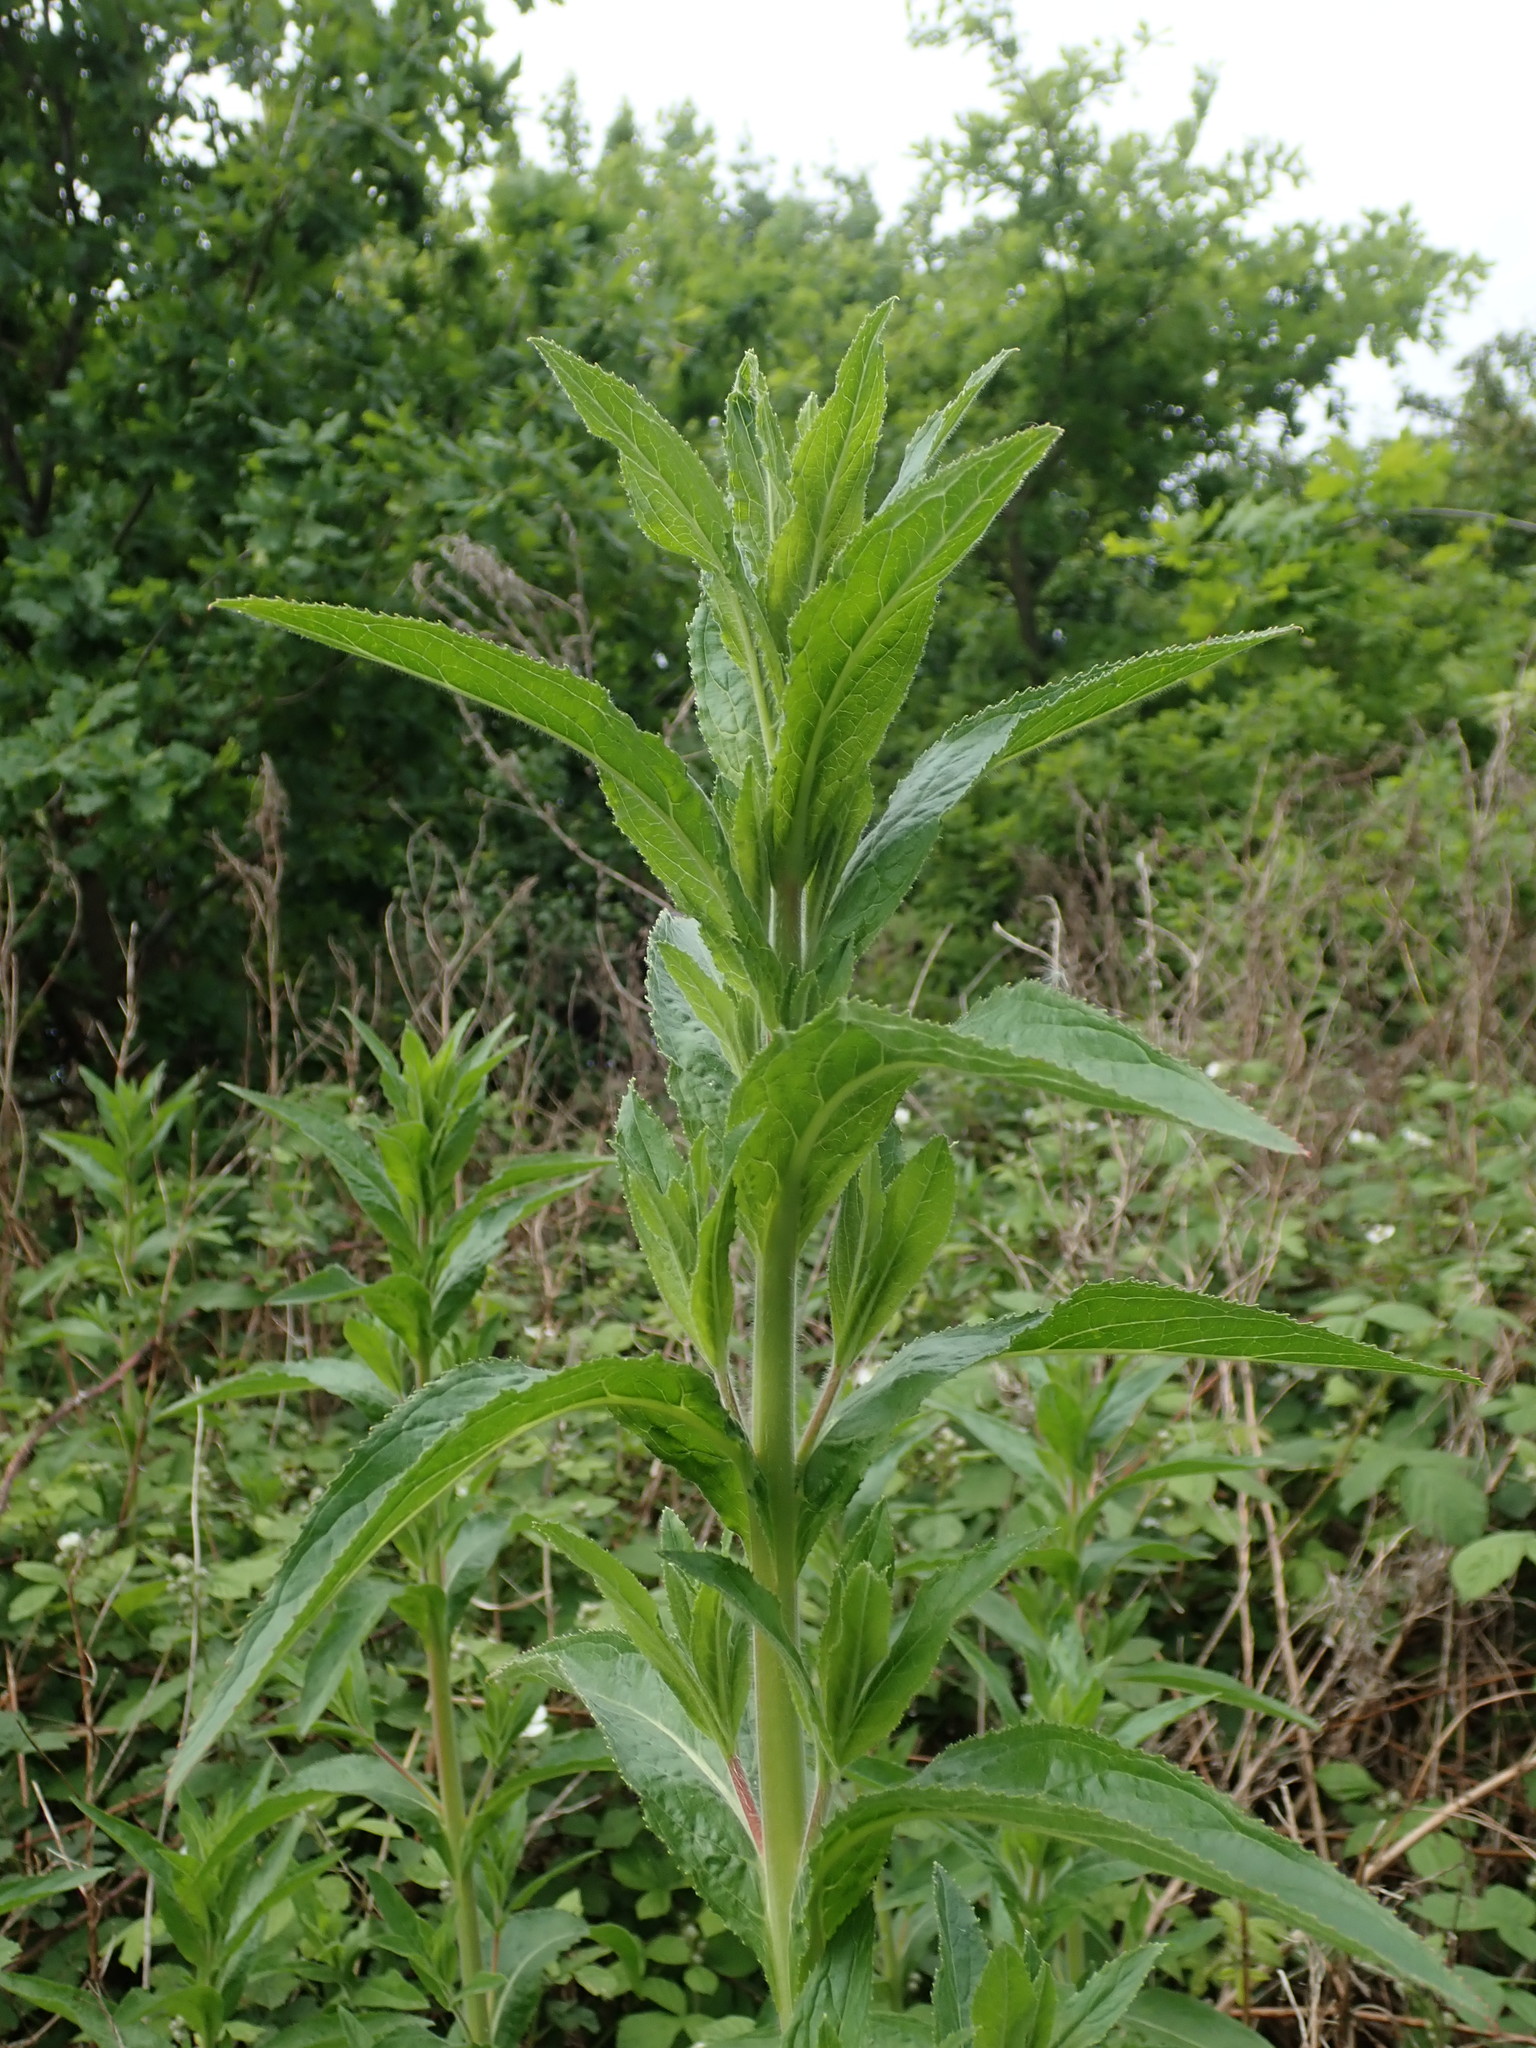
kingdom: Plantae
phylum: Tracheophyta
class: Magnoliopsida
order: Myrtales
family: Onagraceae
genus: Epilobium
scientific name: Epilobium hirsutum
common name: Great willowherb
